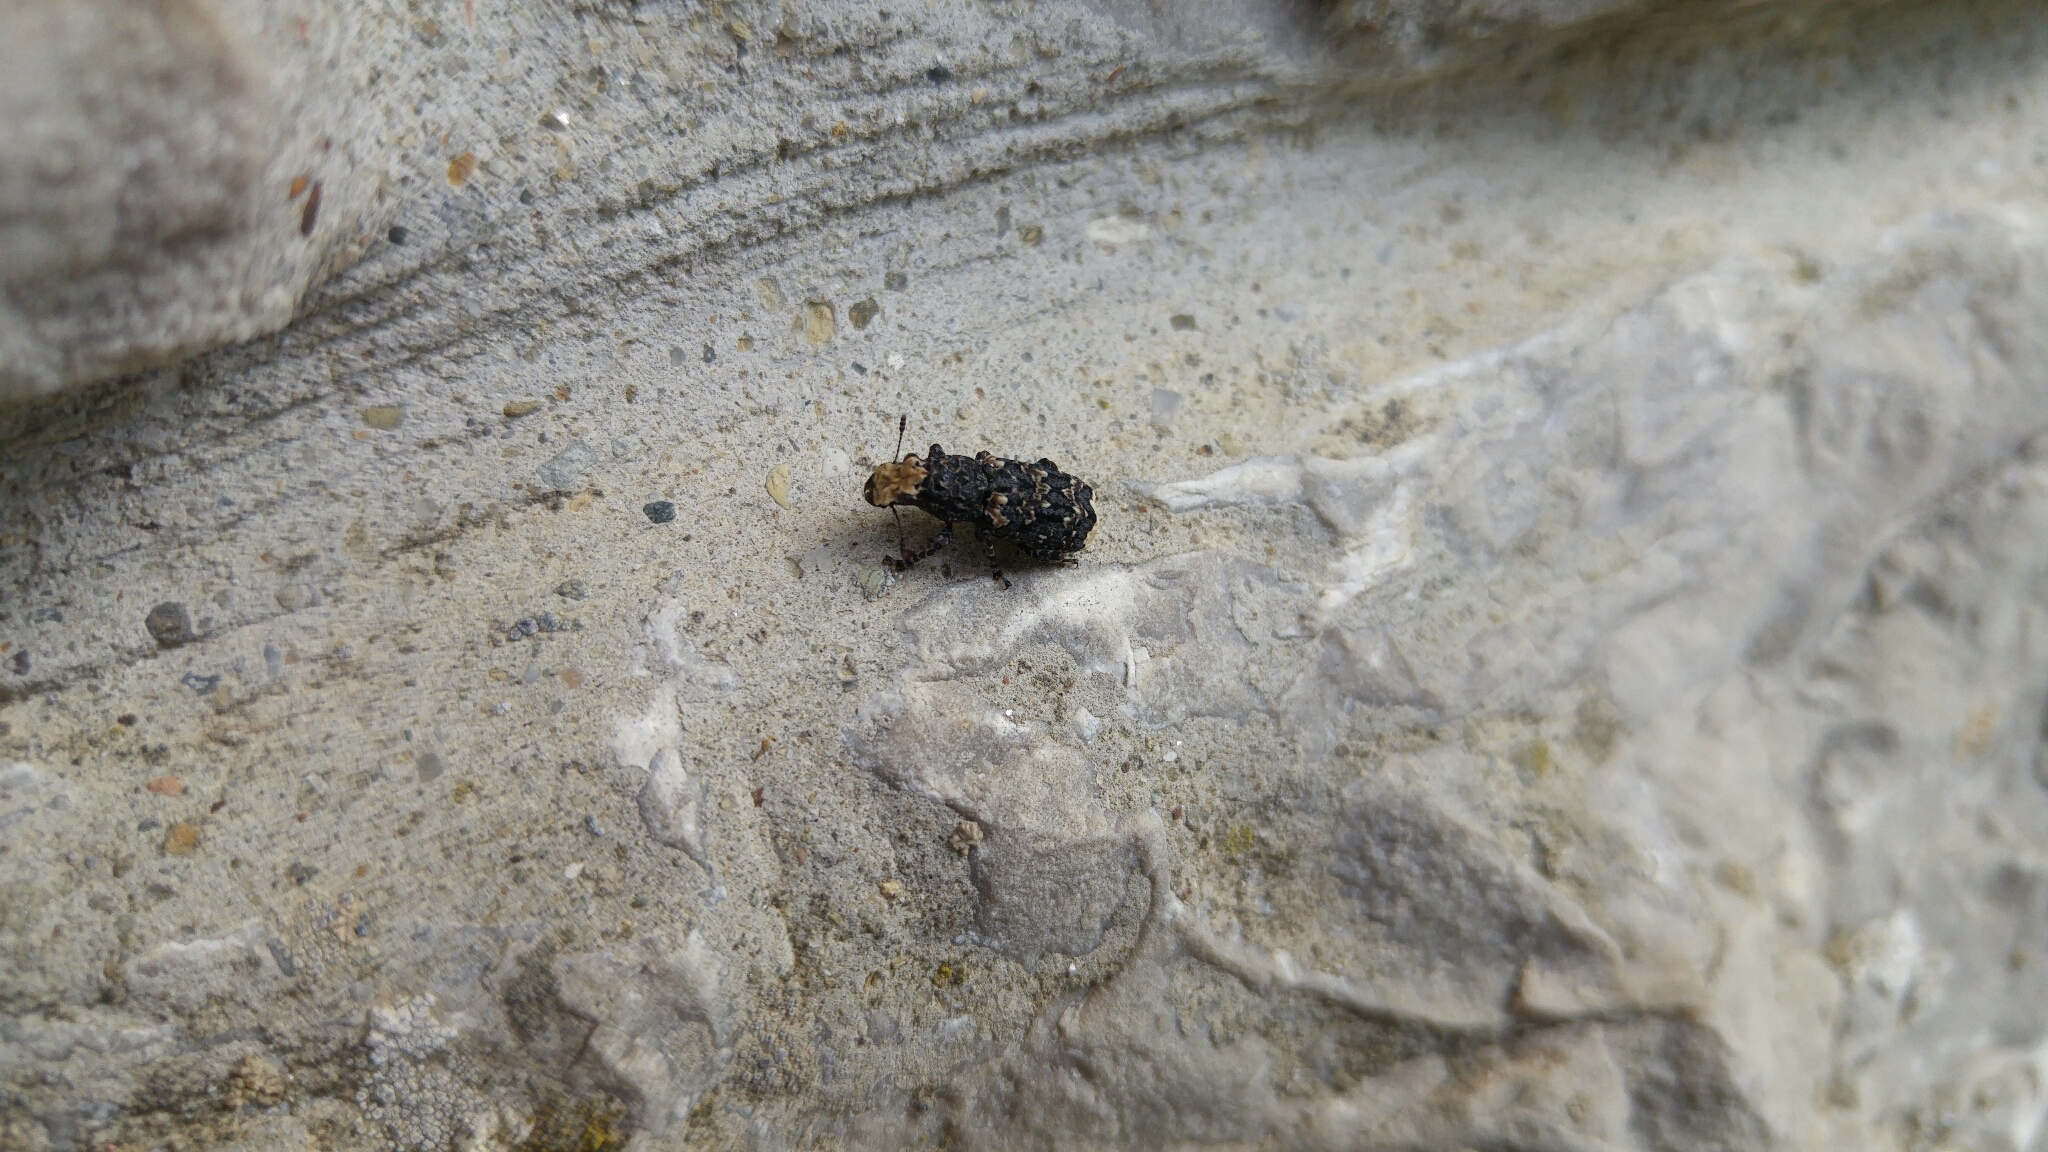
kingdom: Animalia
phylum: Arthropoda
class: Insecta
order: Coleoptera
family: Anthribidae
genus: Platyrhinus
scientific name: Platyrhinus resinosus
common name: Cramp-ball fungus weevil
